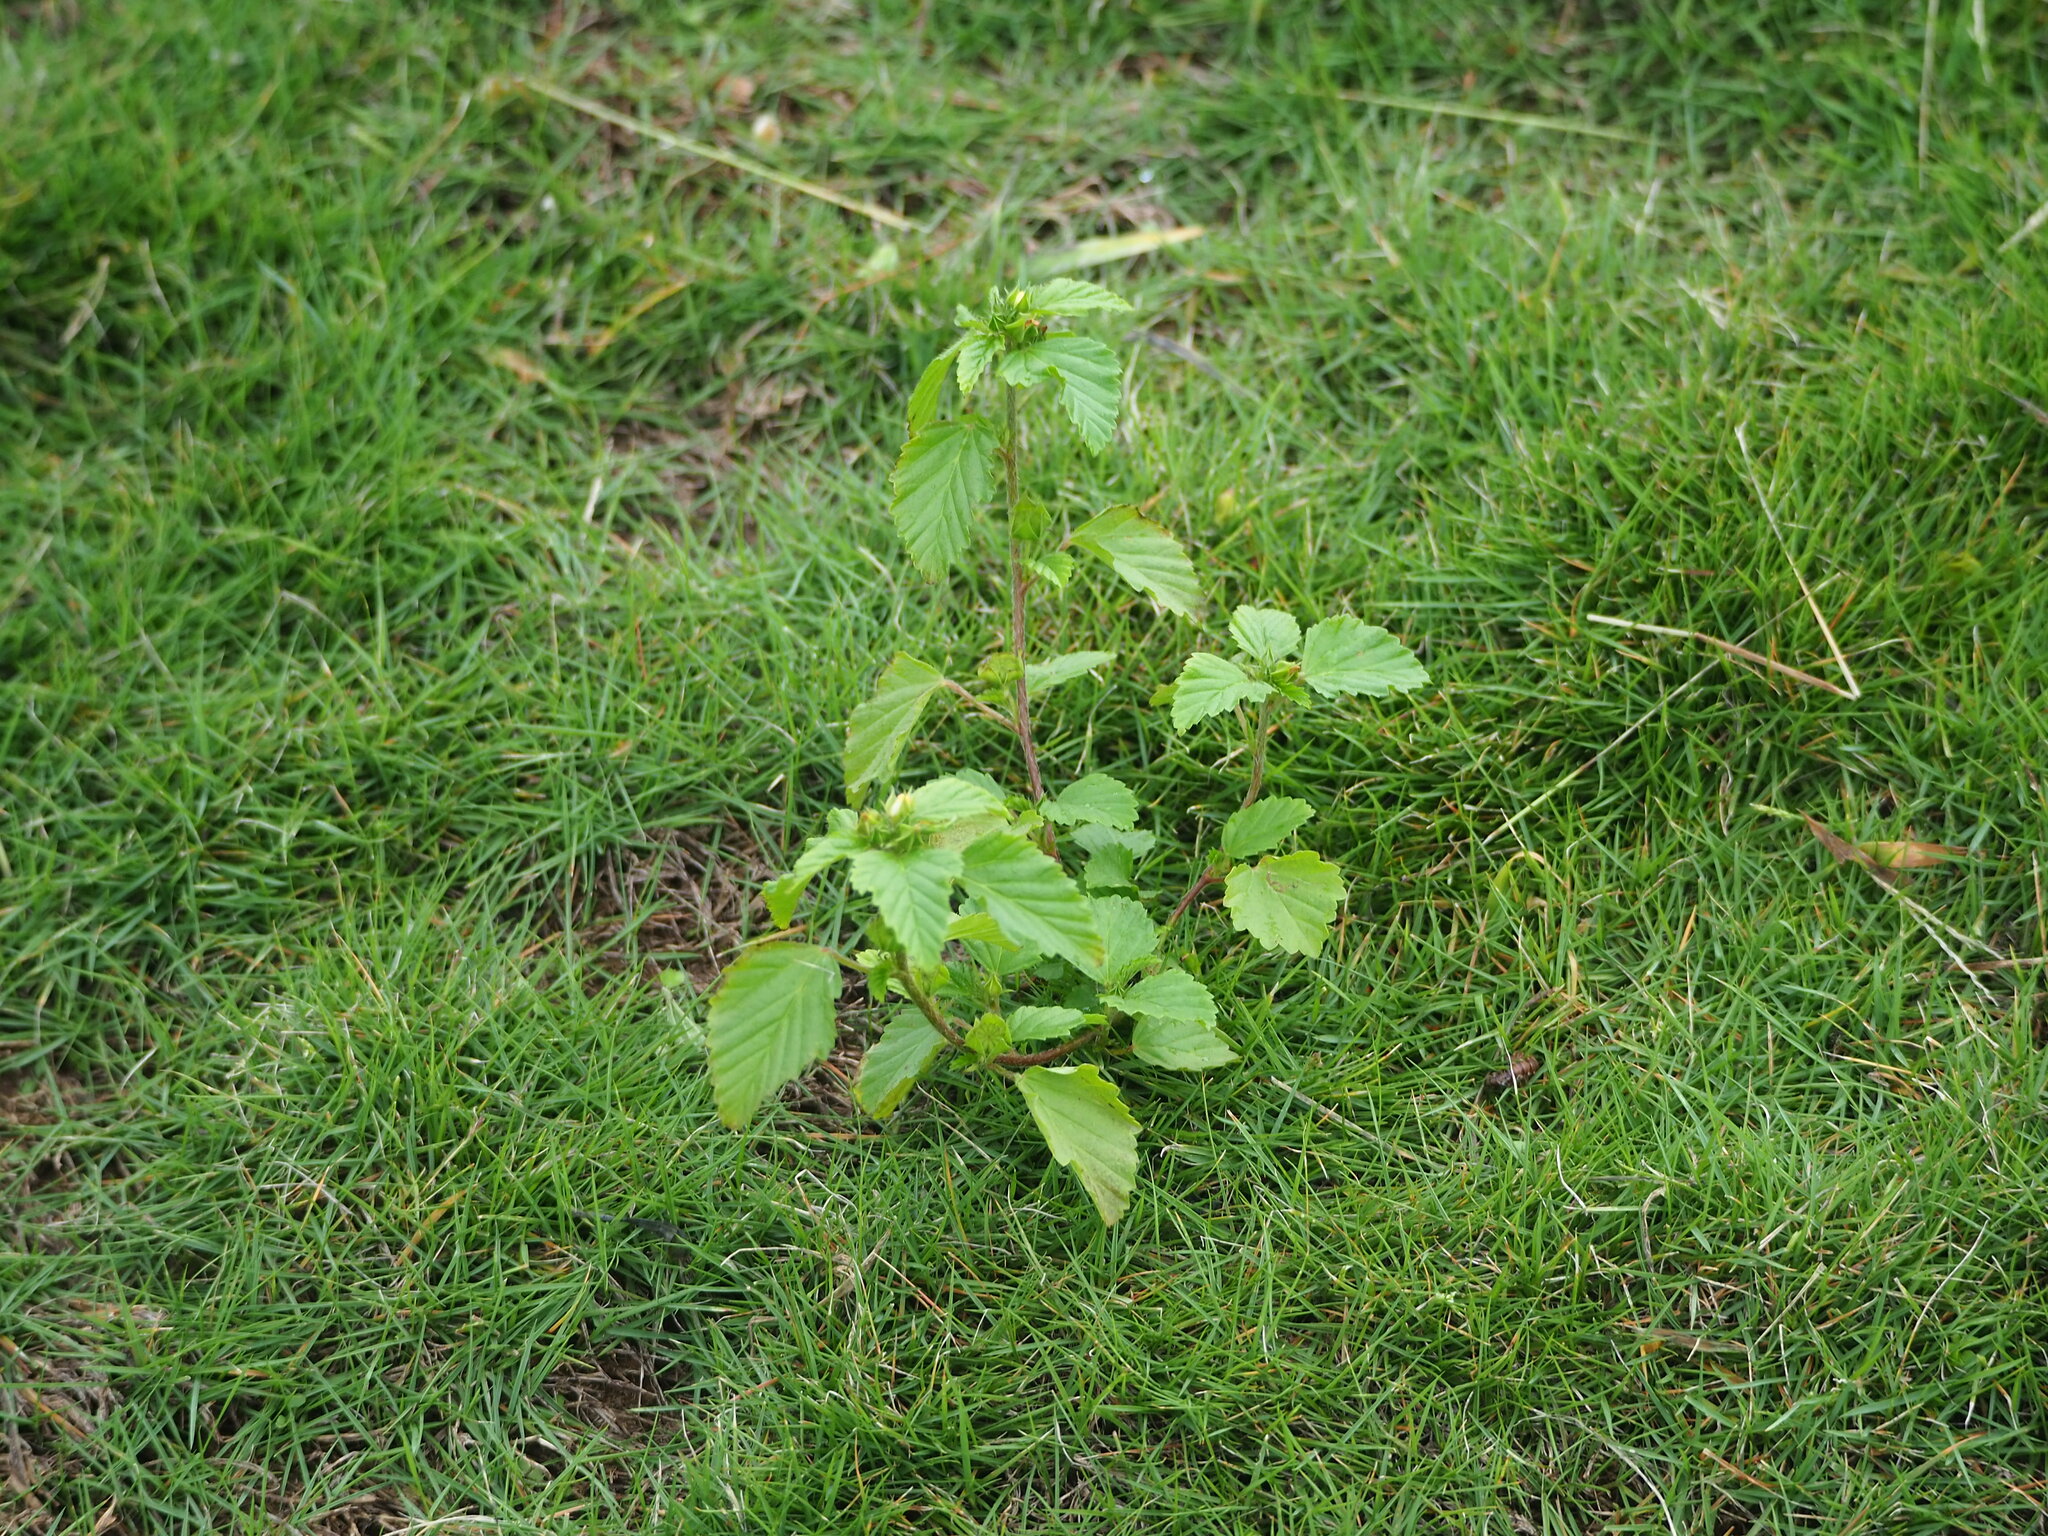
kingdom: Plantae
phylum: Tracheophyta
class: Magnoliopsida
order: Malvales
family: Malvaceae
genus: Malvastrum
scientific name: Malvastrum coromandelianum
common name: Threelobe false mallow
